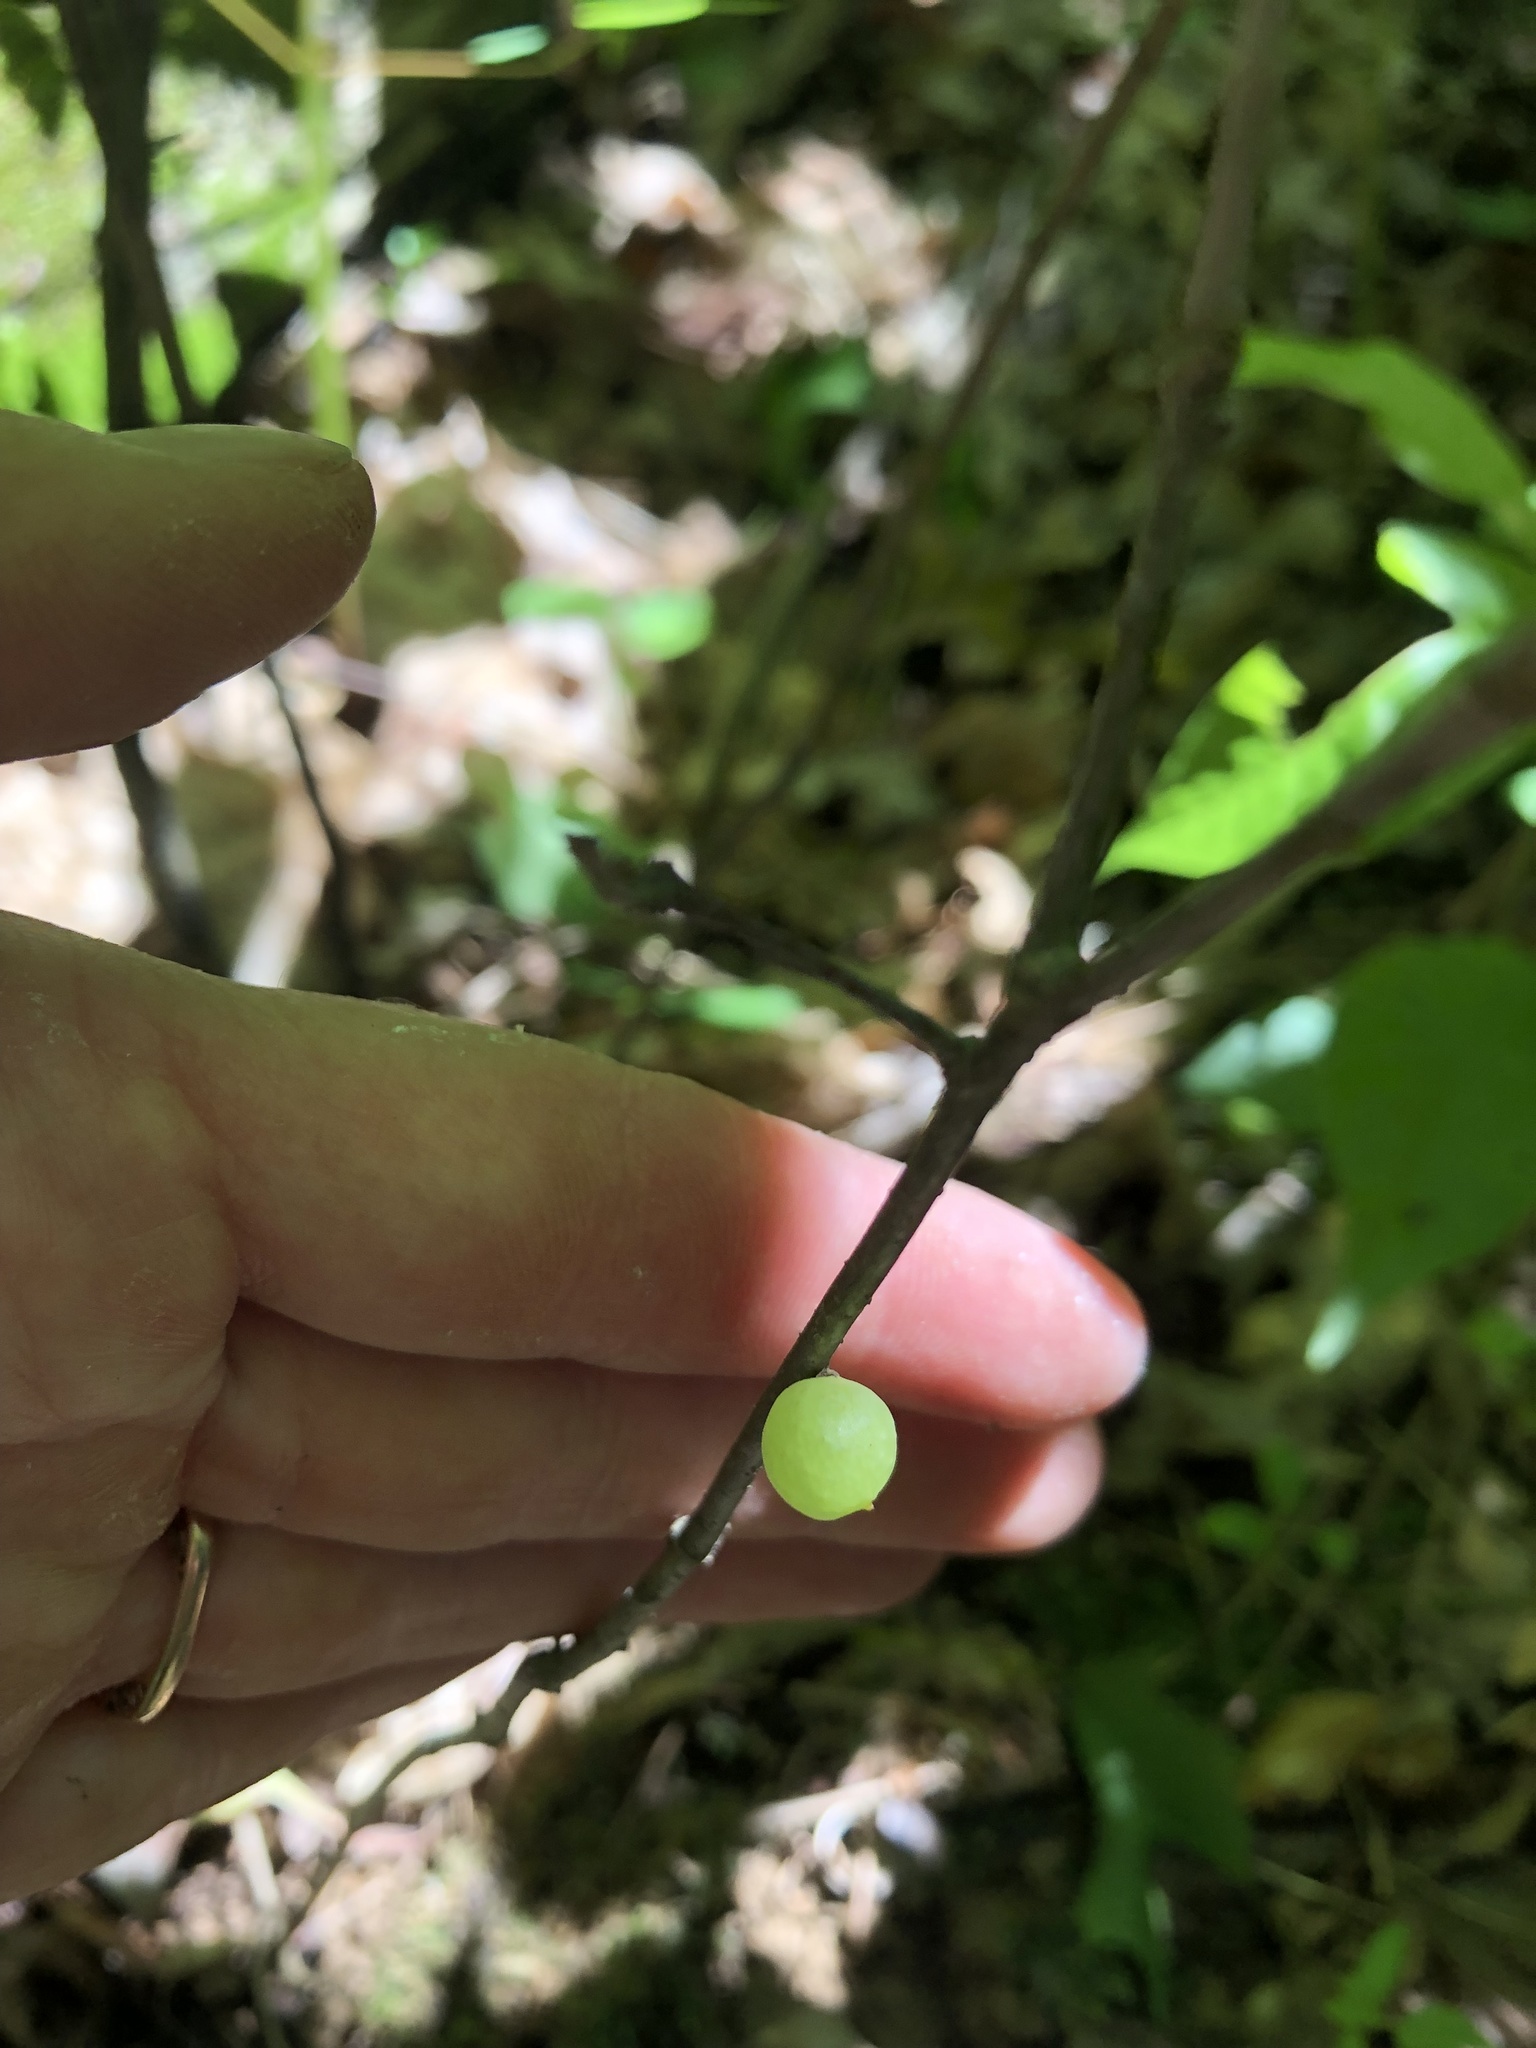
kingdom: Animalia
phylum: Arthropoda
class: Insecta
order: Hymenoptera
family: Cynipidae
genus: Amphibolips
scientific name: Amphibolips
